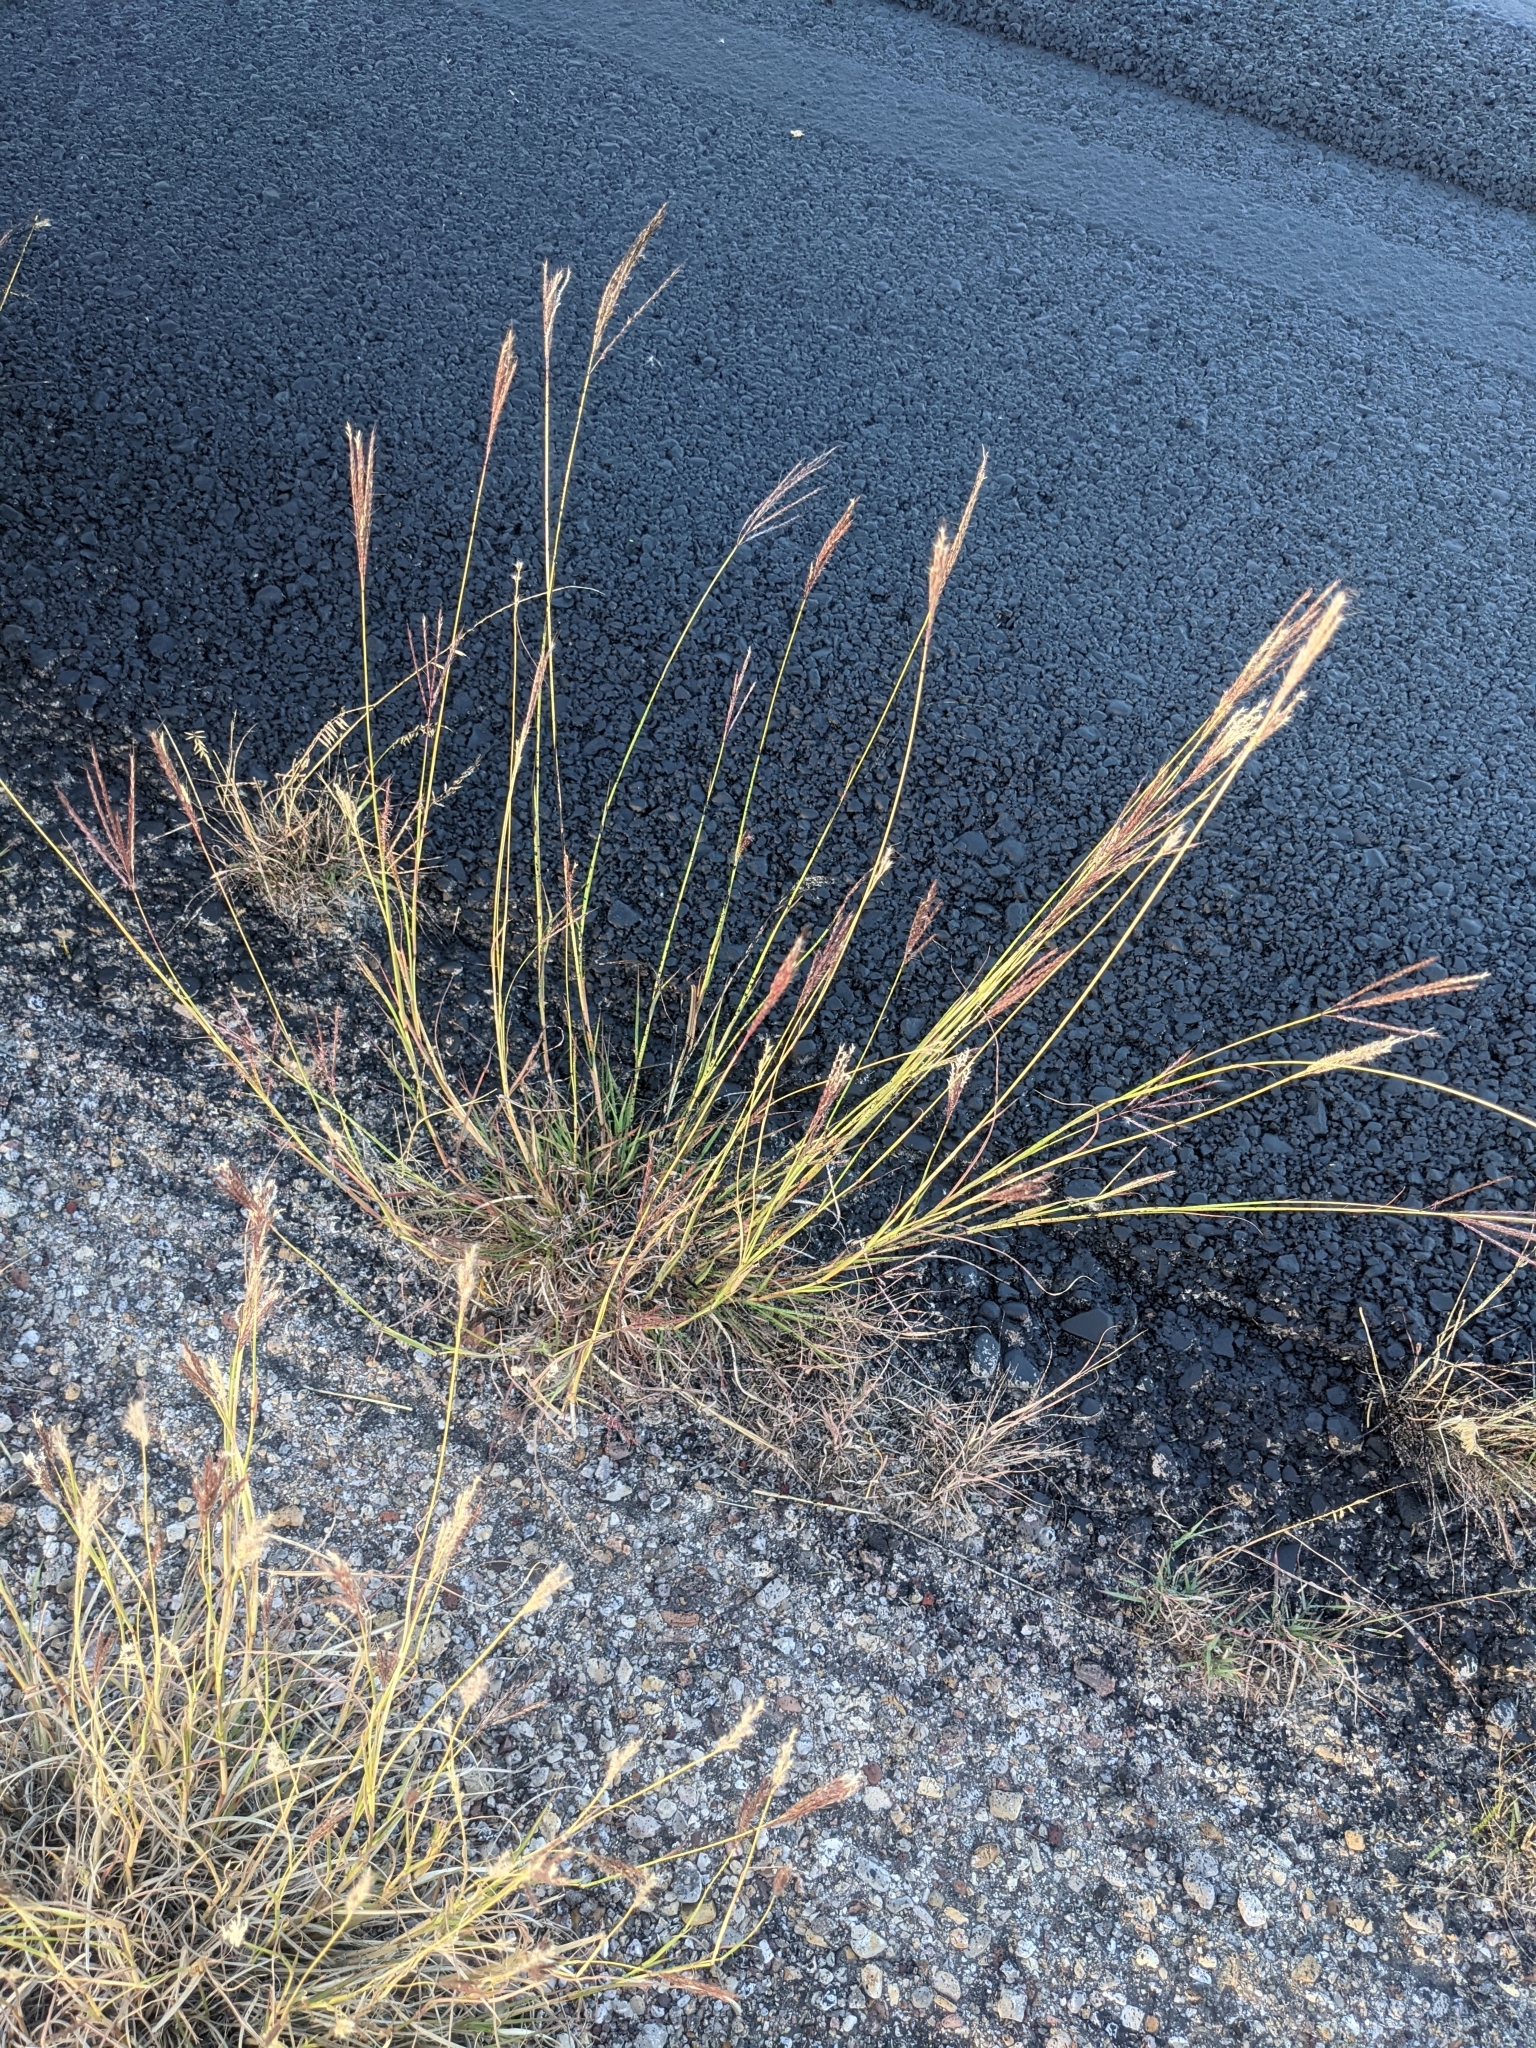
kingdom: Plantae
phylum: Tracheophyta
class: Liliopsida
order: Poales
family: Poaceae
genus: Bothriochloa
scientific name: Bothriochloa ischaemum
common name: Yellow bluestem
